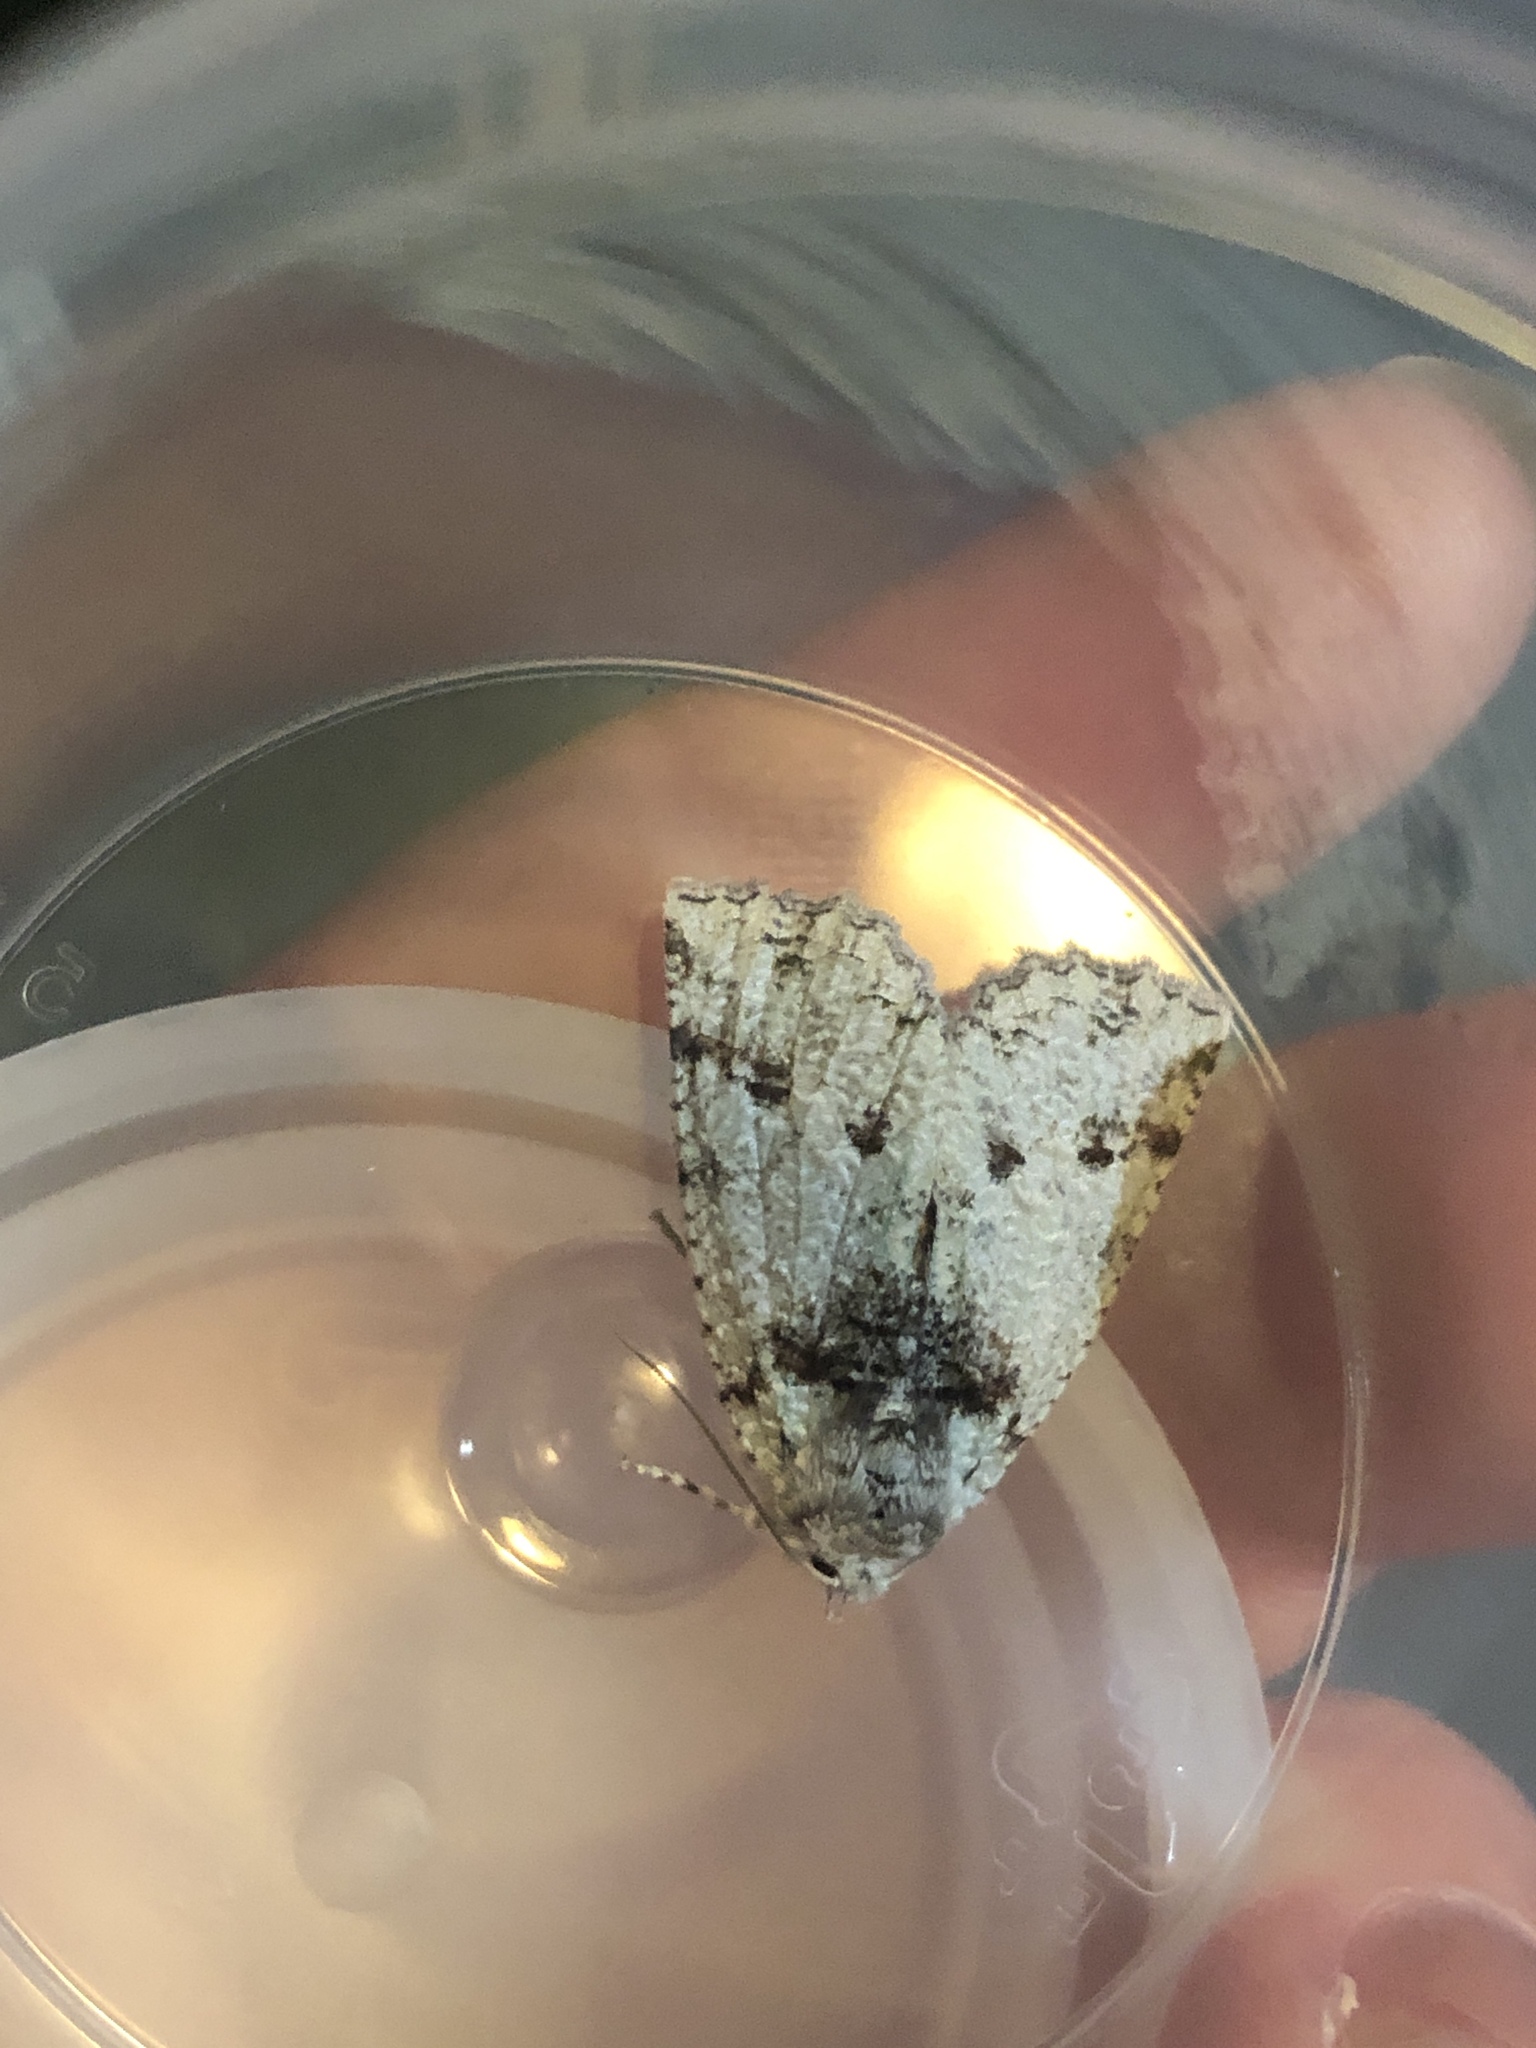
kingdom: Animalia
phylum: Arthropoda
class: Insecta
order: Lepidoptera
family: Geometridae
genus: Declana
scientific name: Declana floccosa
